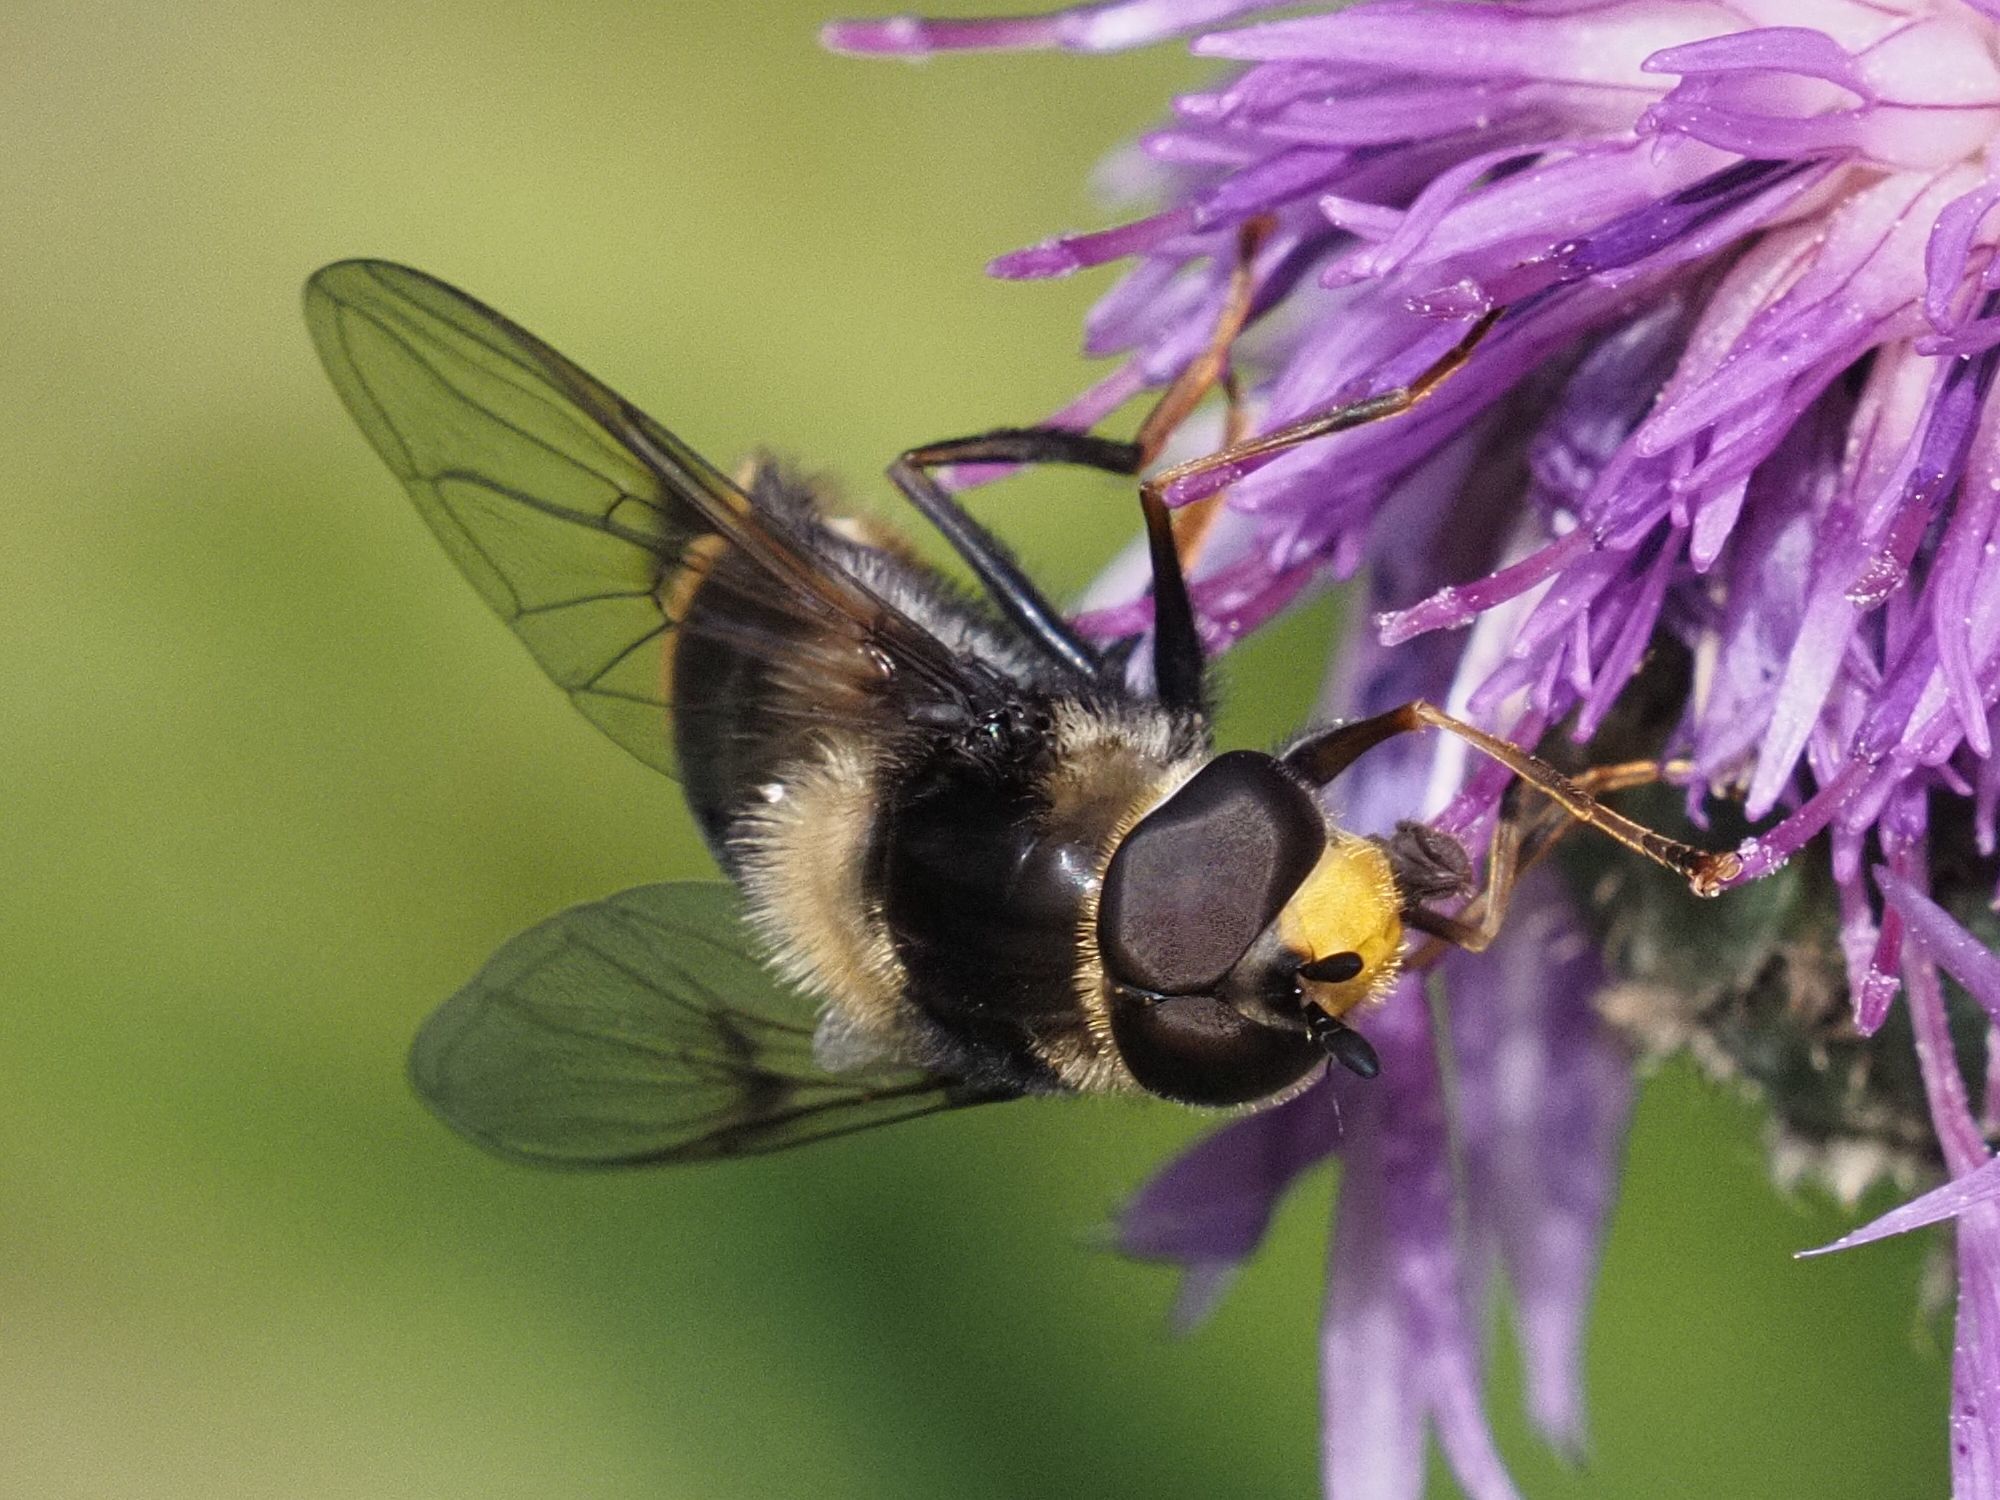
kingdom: Animalia
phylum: Arthropoda
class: Insecta
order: Diptera
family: Syrphidae
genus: Eriozona
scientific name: Eriozona syrphoides
